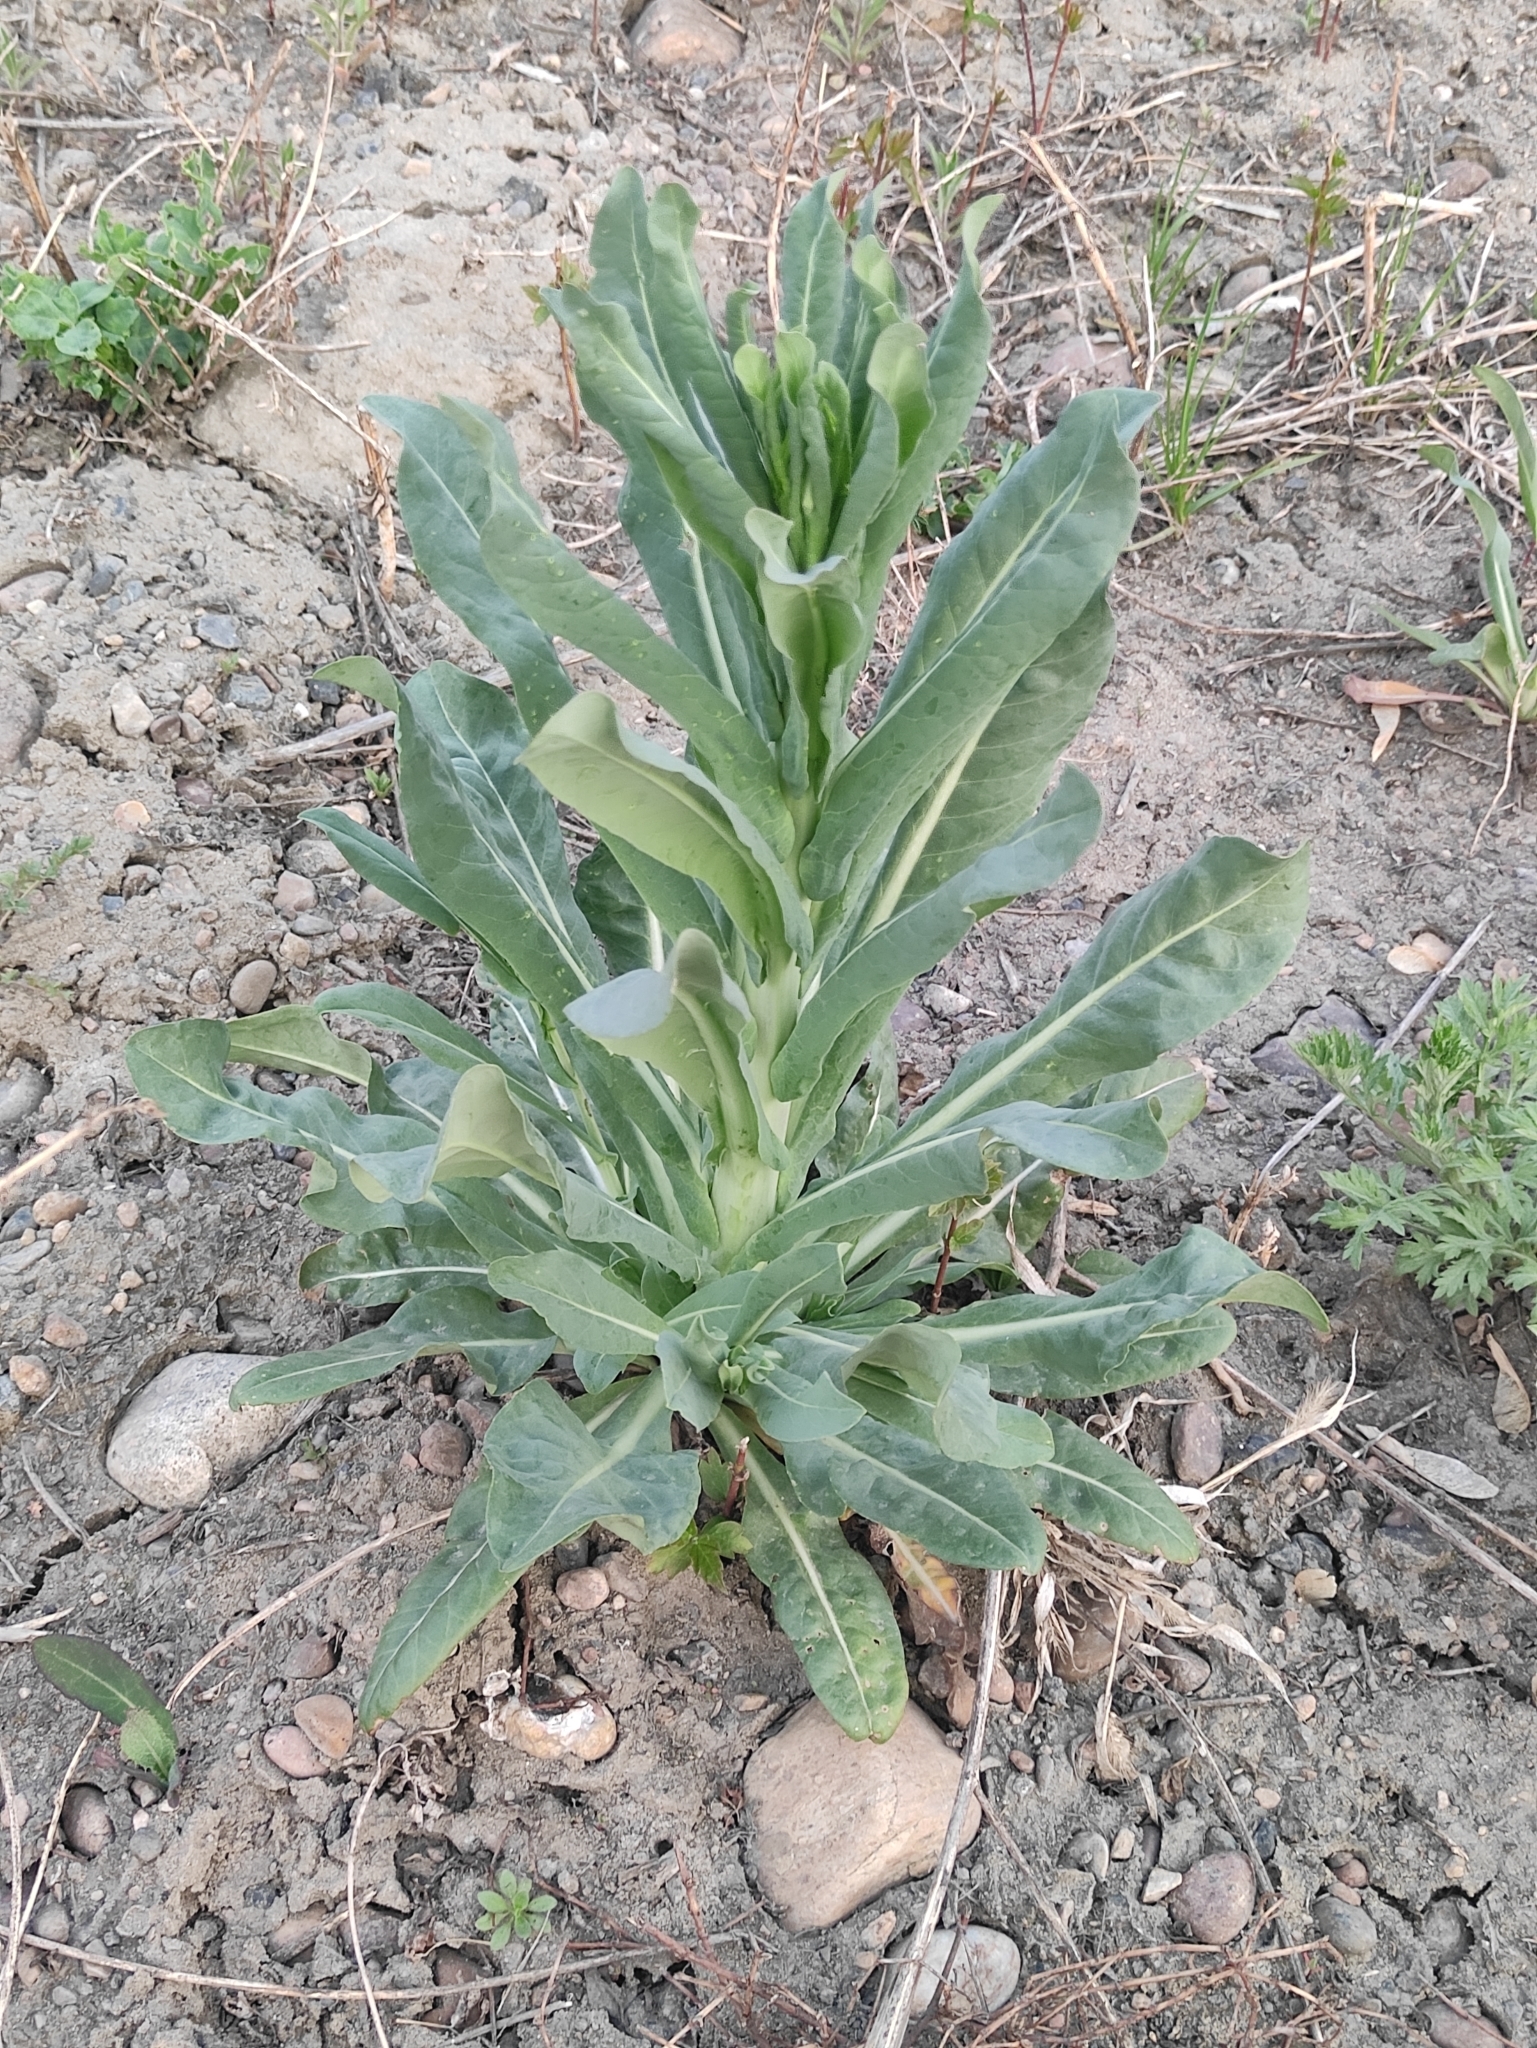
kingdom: Plantae
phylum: Tracheophyta
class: Magnoliopsida
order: Brassicales
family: Brassicaceae
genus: Isatis
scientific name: Isatis tinctoria
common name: Woad
